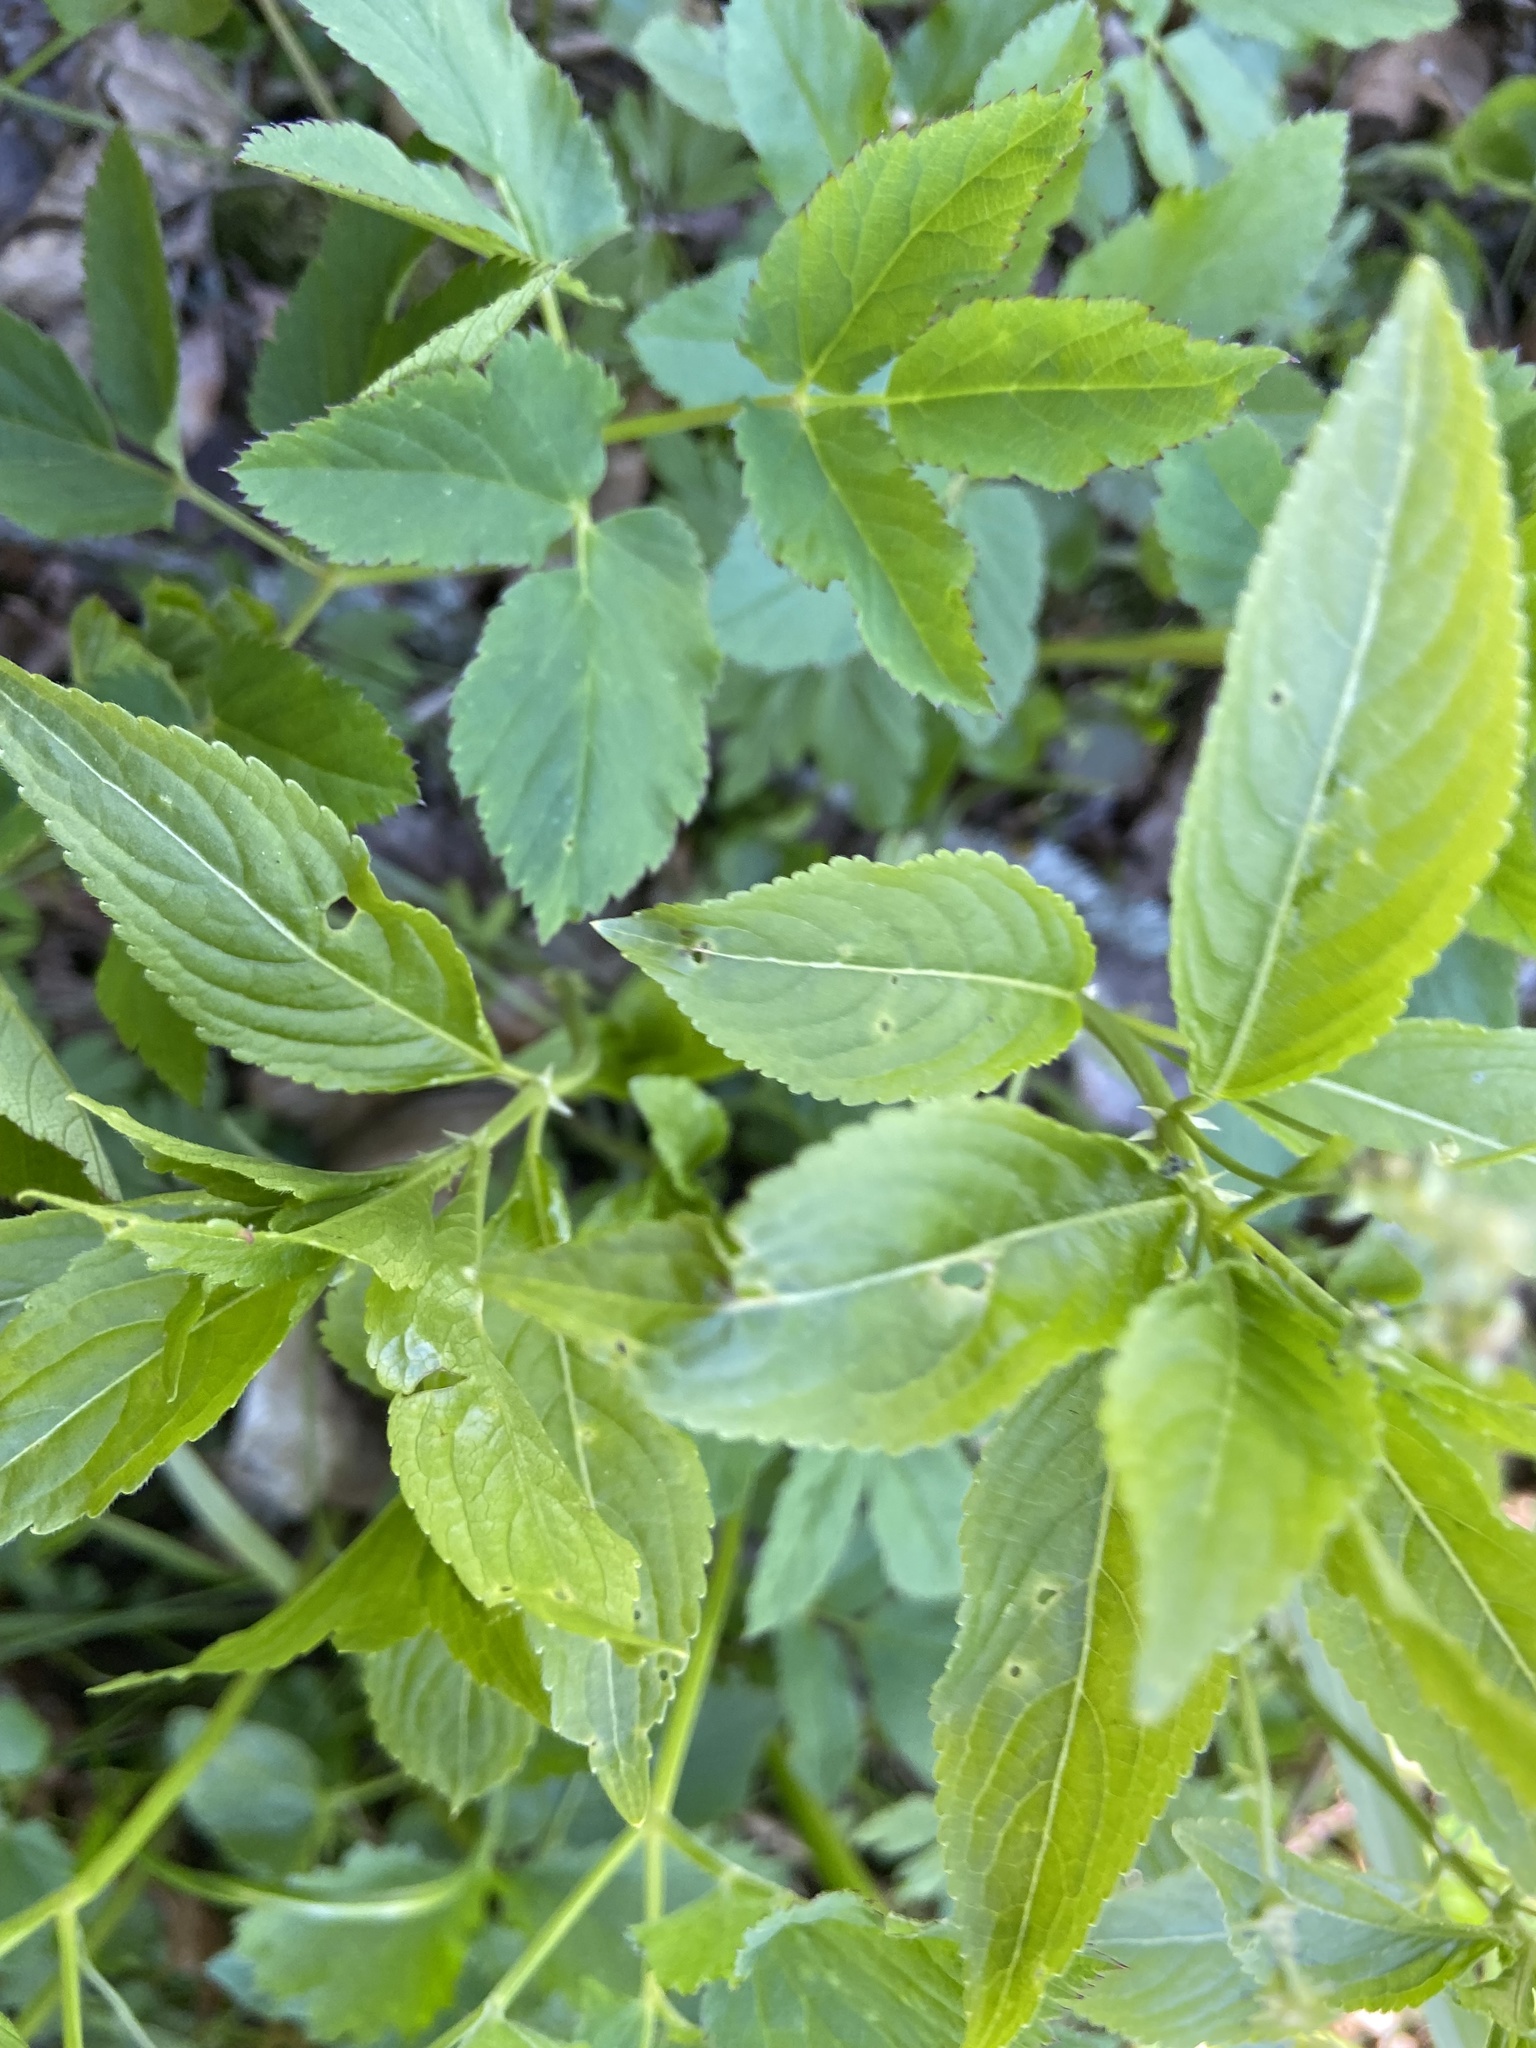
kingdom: Plantae
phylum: Tracheophyta
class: Magnoliopsida
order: Malpighiales
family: Euphorbiaceae
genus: Mercurialis
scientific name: Mercurialis perennis
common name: Dog mercury
